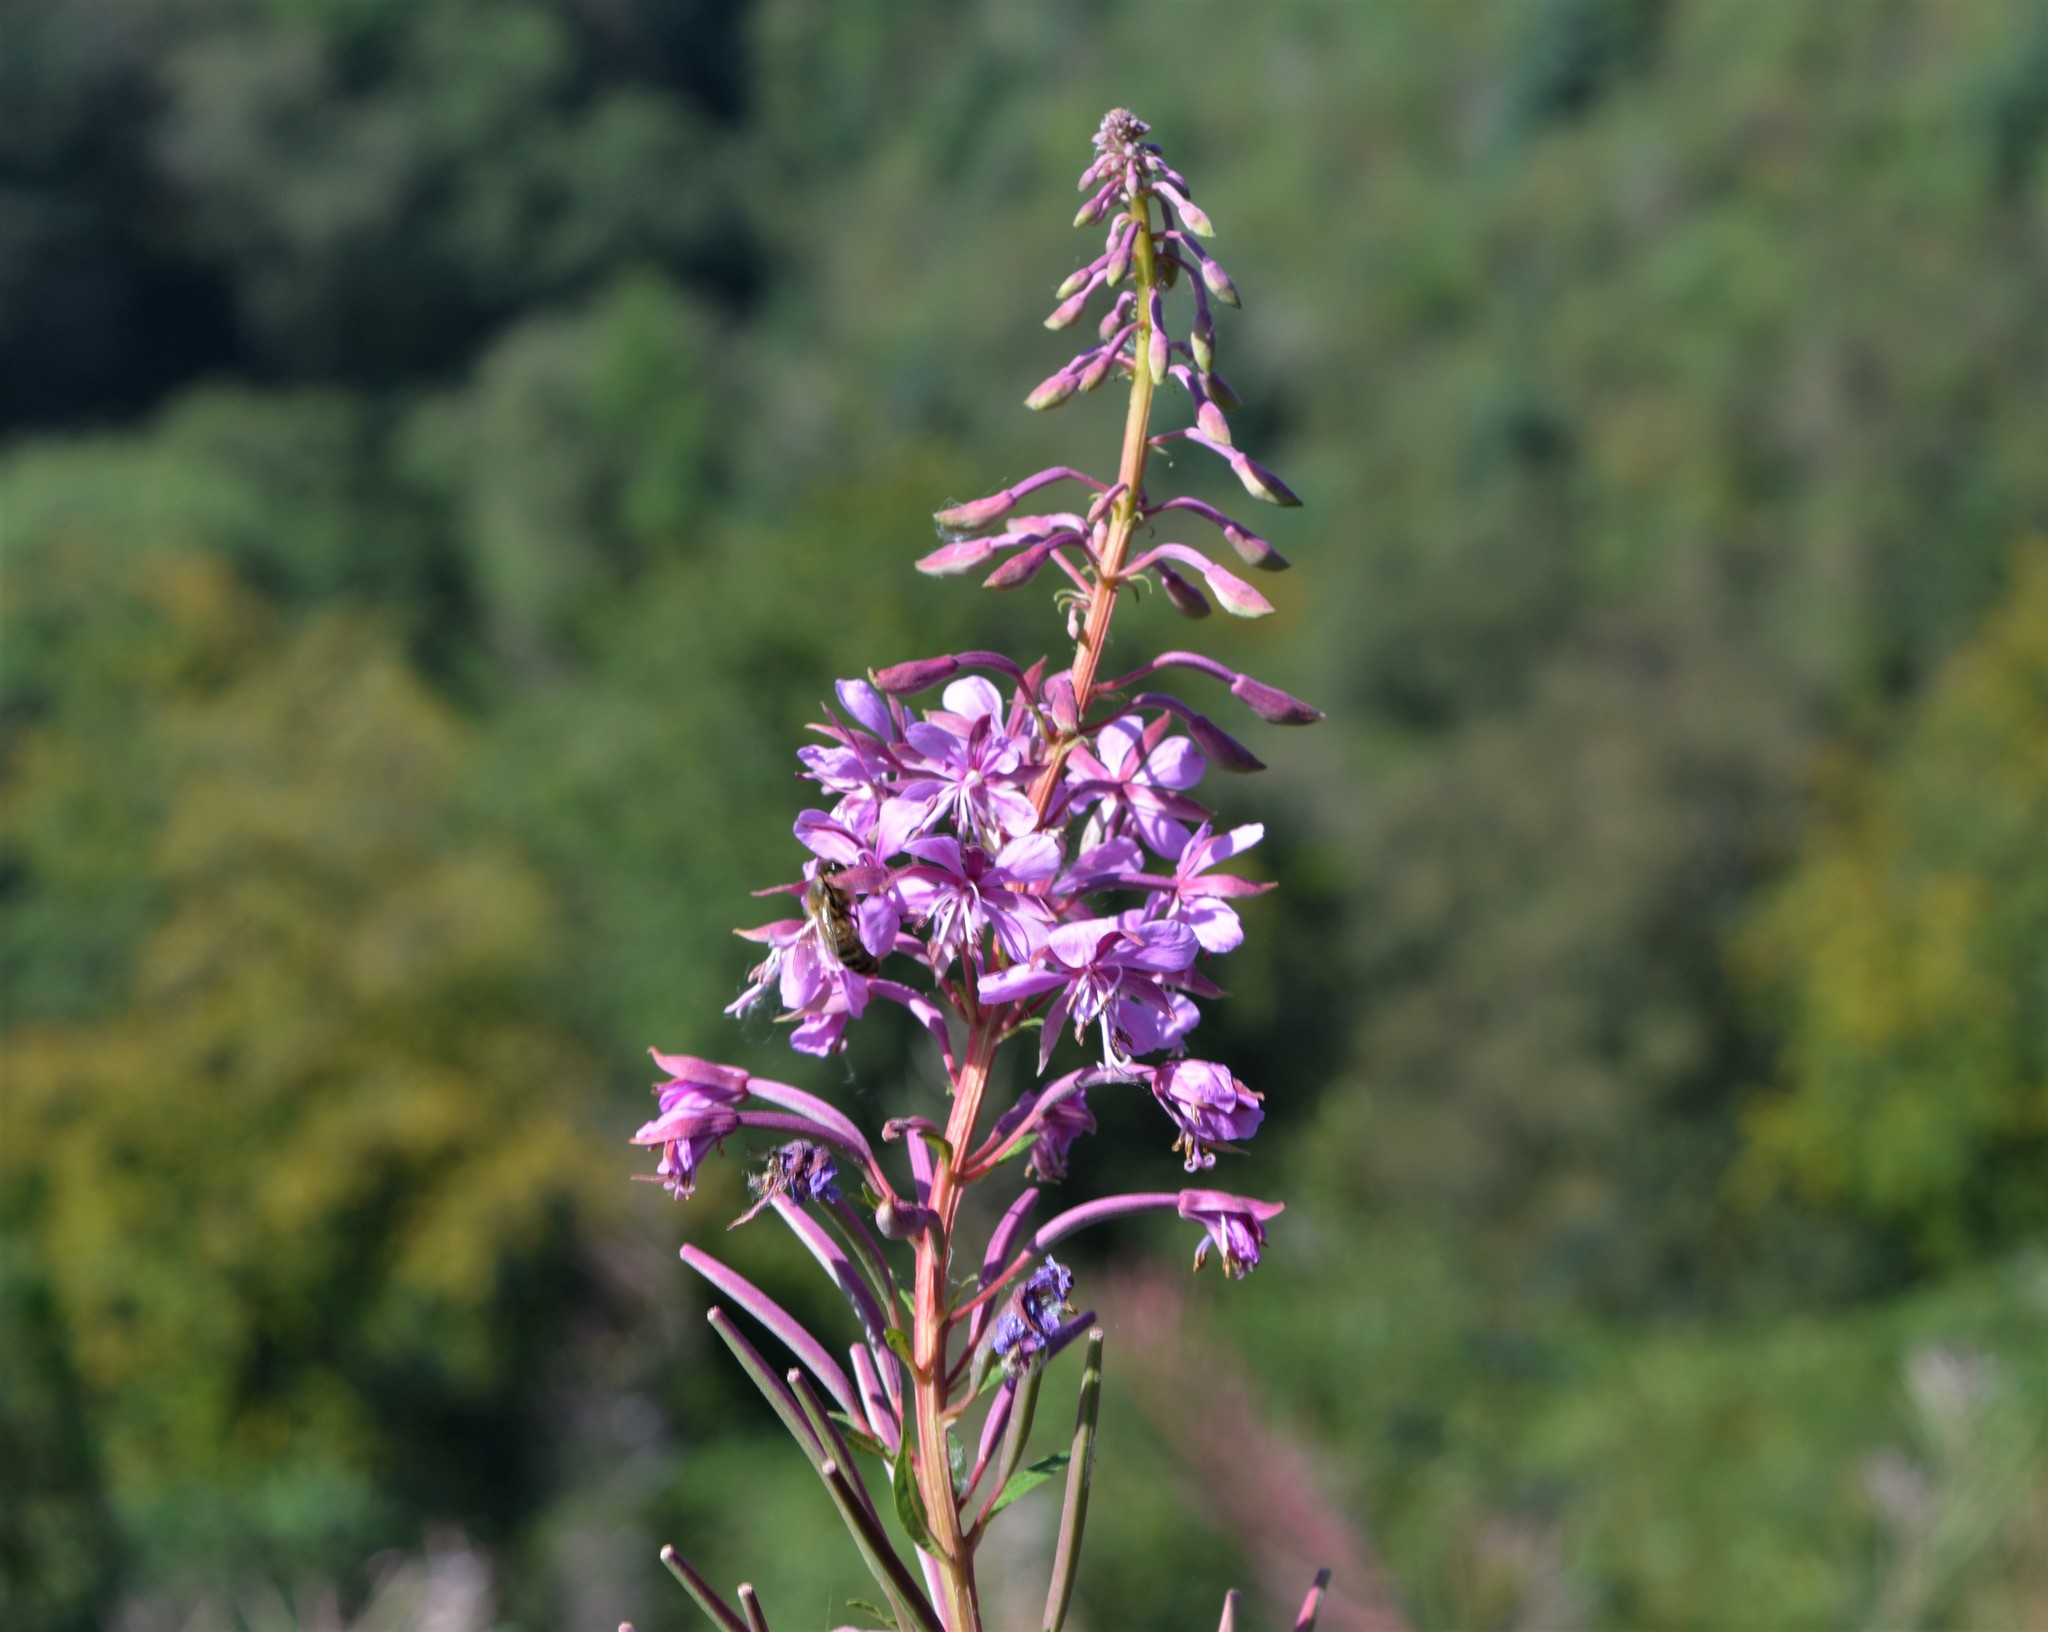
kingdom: Plantae
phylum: Tracheophyta
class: Magnoliopsida
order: Myrtales
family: Onagraceae
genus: Chamaenerion
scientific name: Chamaenerion angustifolium
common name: Fireweed
